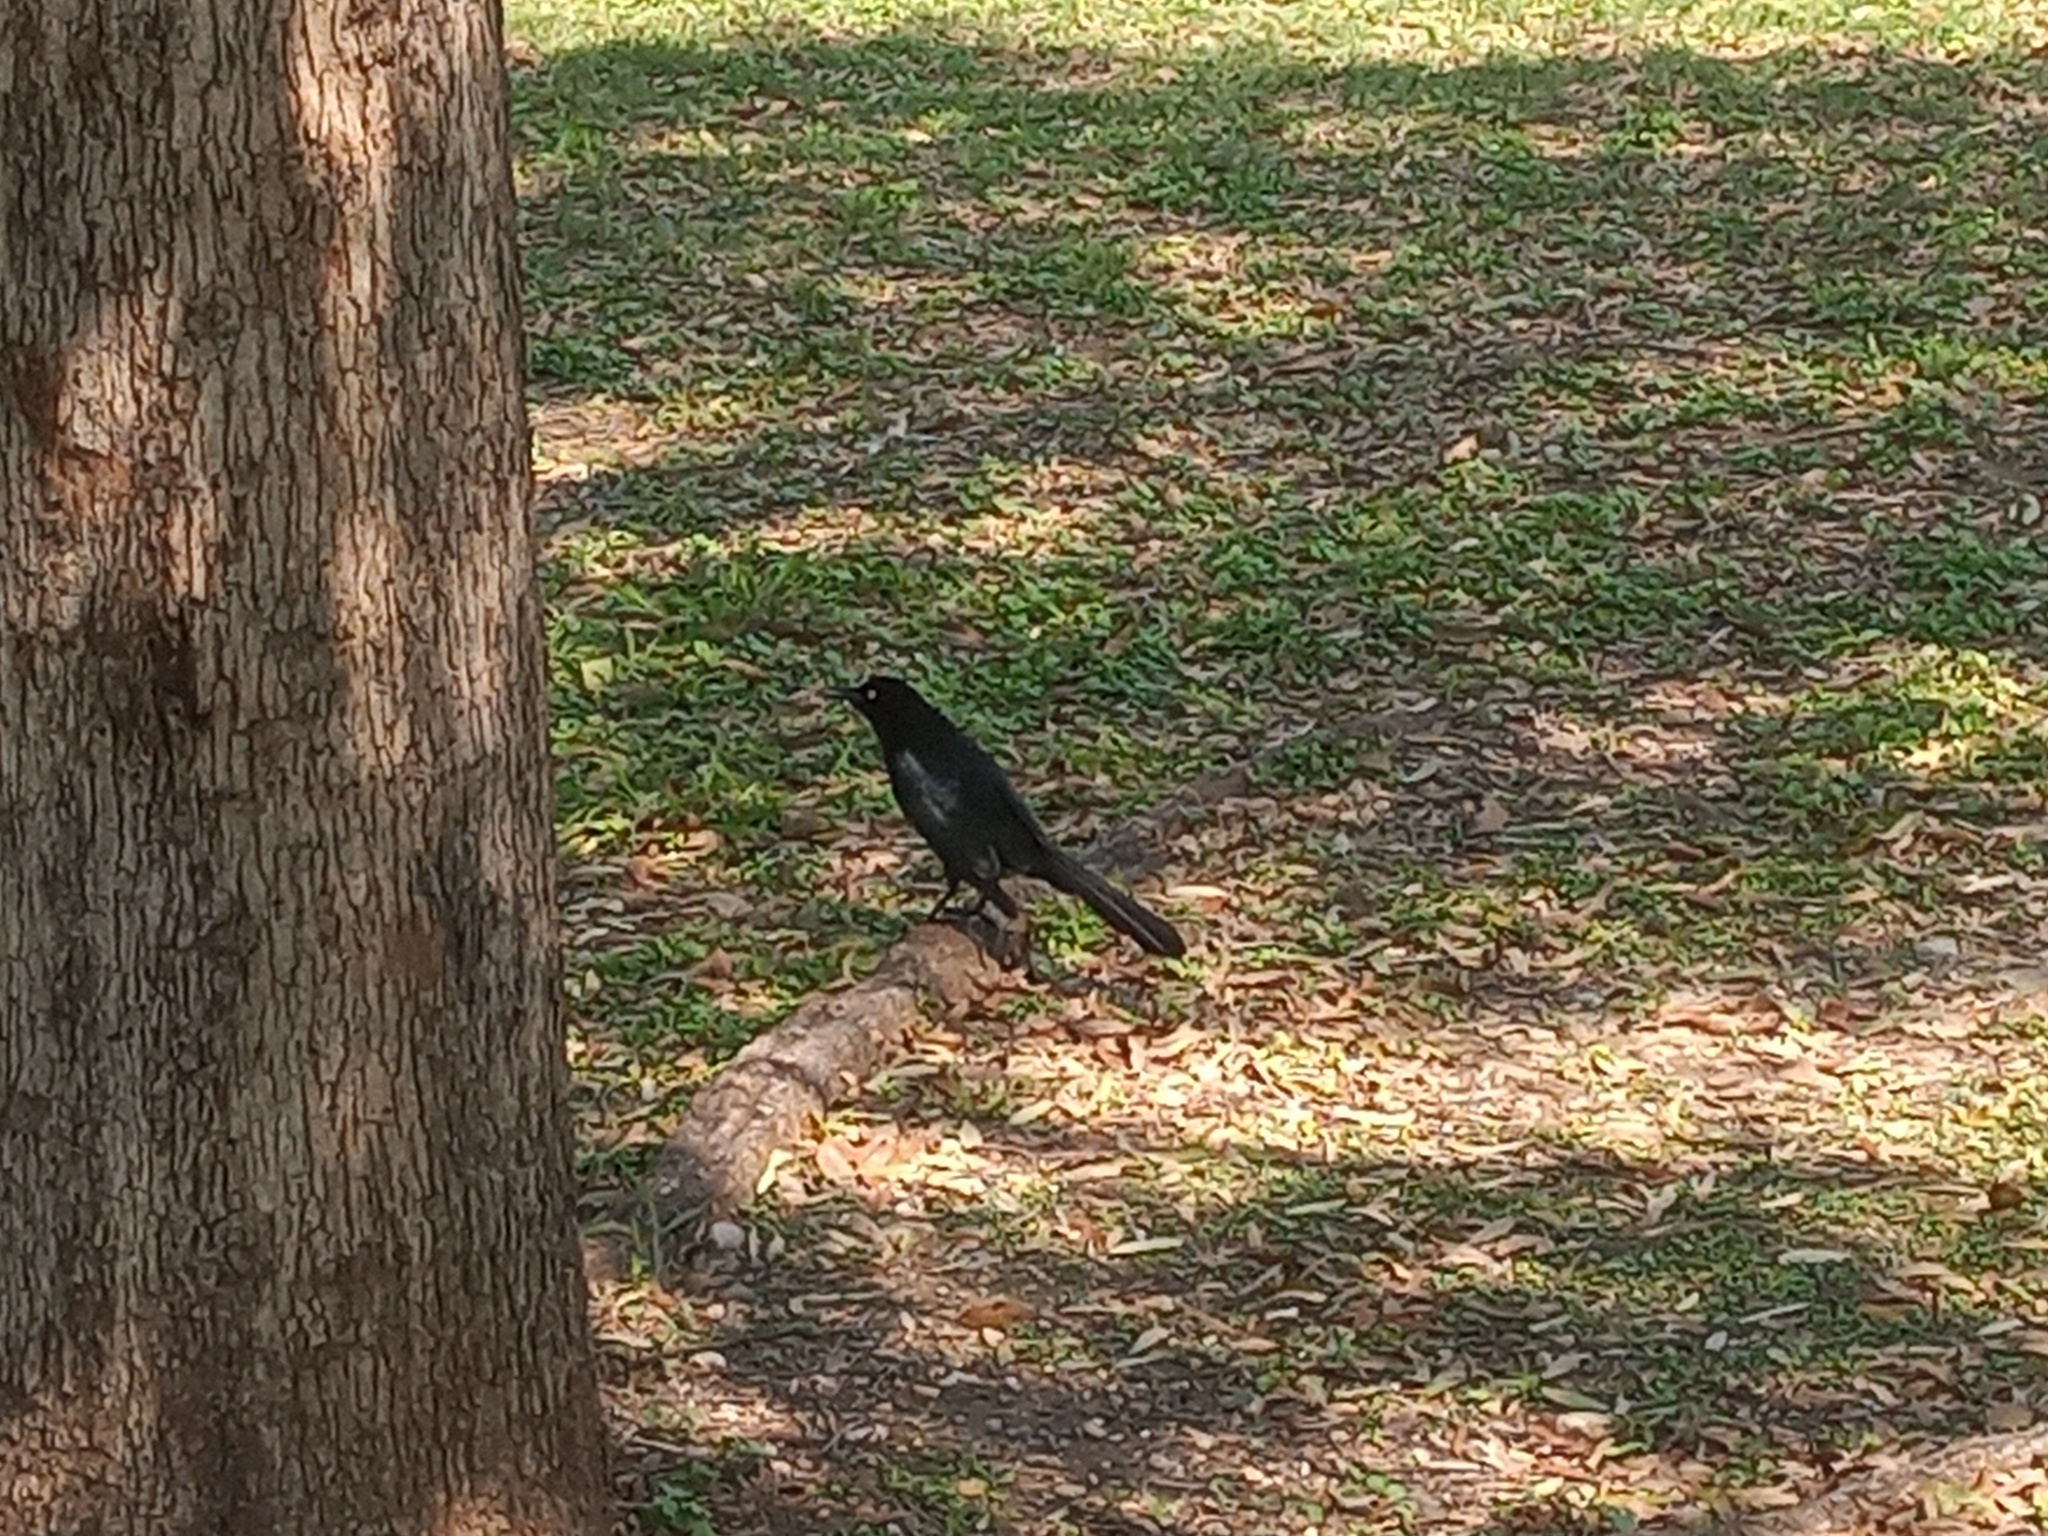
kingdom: Animalia
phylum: Chordata
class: Aves
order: Passeriformes
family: Icteridae
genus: Quiscalus
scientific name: Quiscalus mexicanus
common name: Great-tailed grackle
